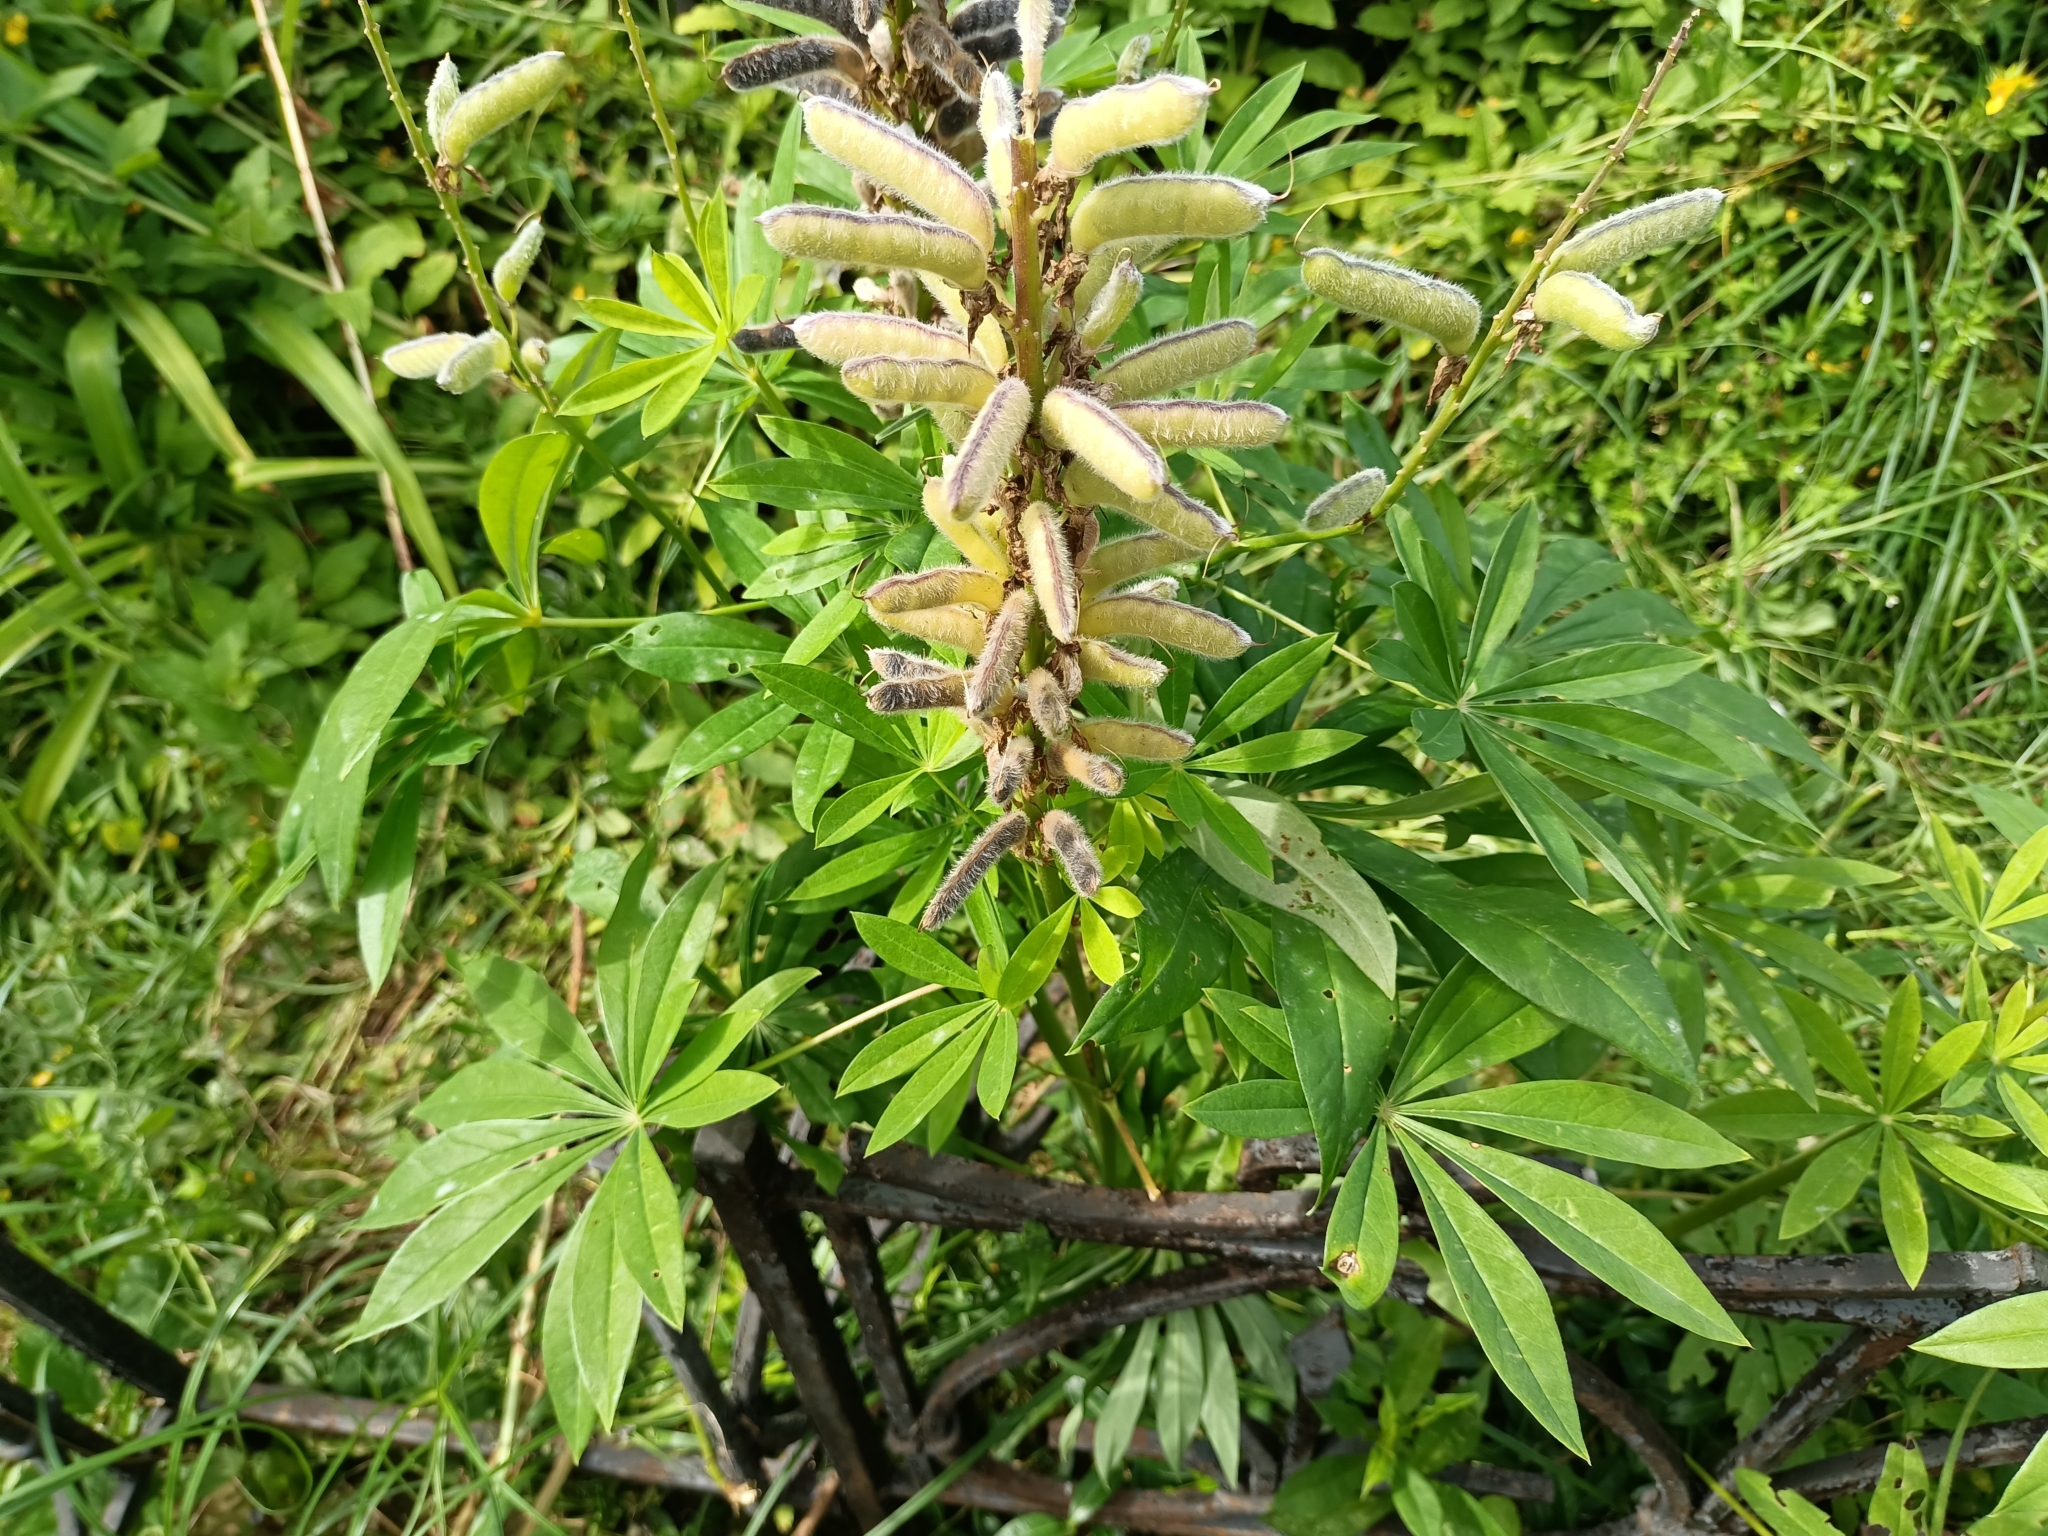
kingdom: Plantae
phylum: Tracheophyta
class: Magnoliopsida
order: Fabales
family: Fabaceae
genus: Lupinus
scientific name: Lupinus polyphyllus
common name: Garden lupin
